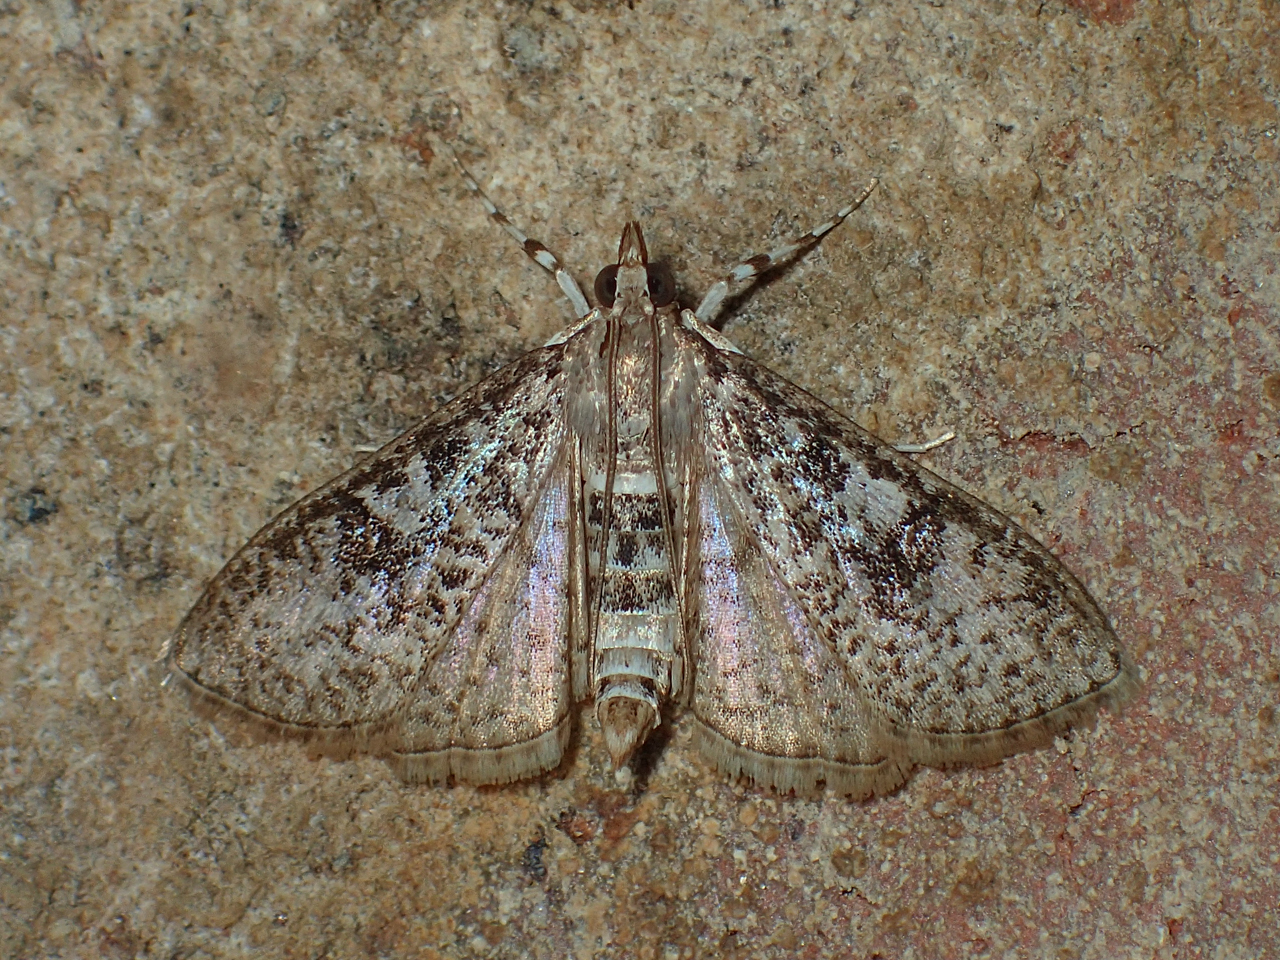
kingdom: Animalia
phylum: Arthropoda
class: Insecta
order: Lepidoptera
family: Crambidae
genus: Palpita
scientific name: Palpita magniferalis
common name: Splendid palpita moth
